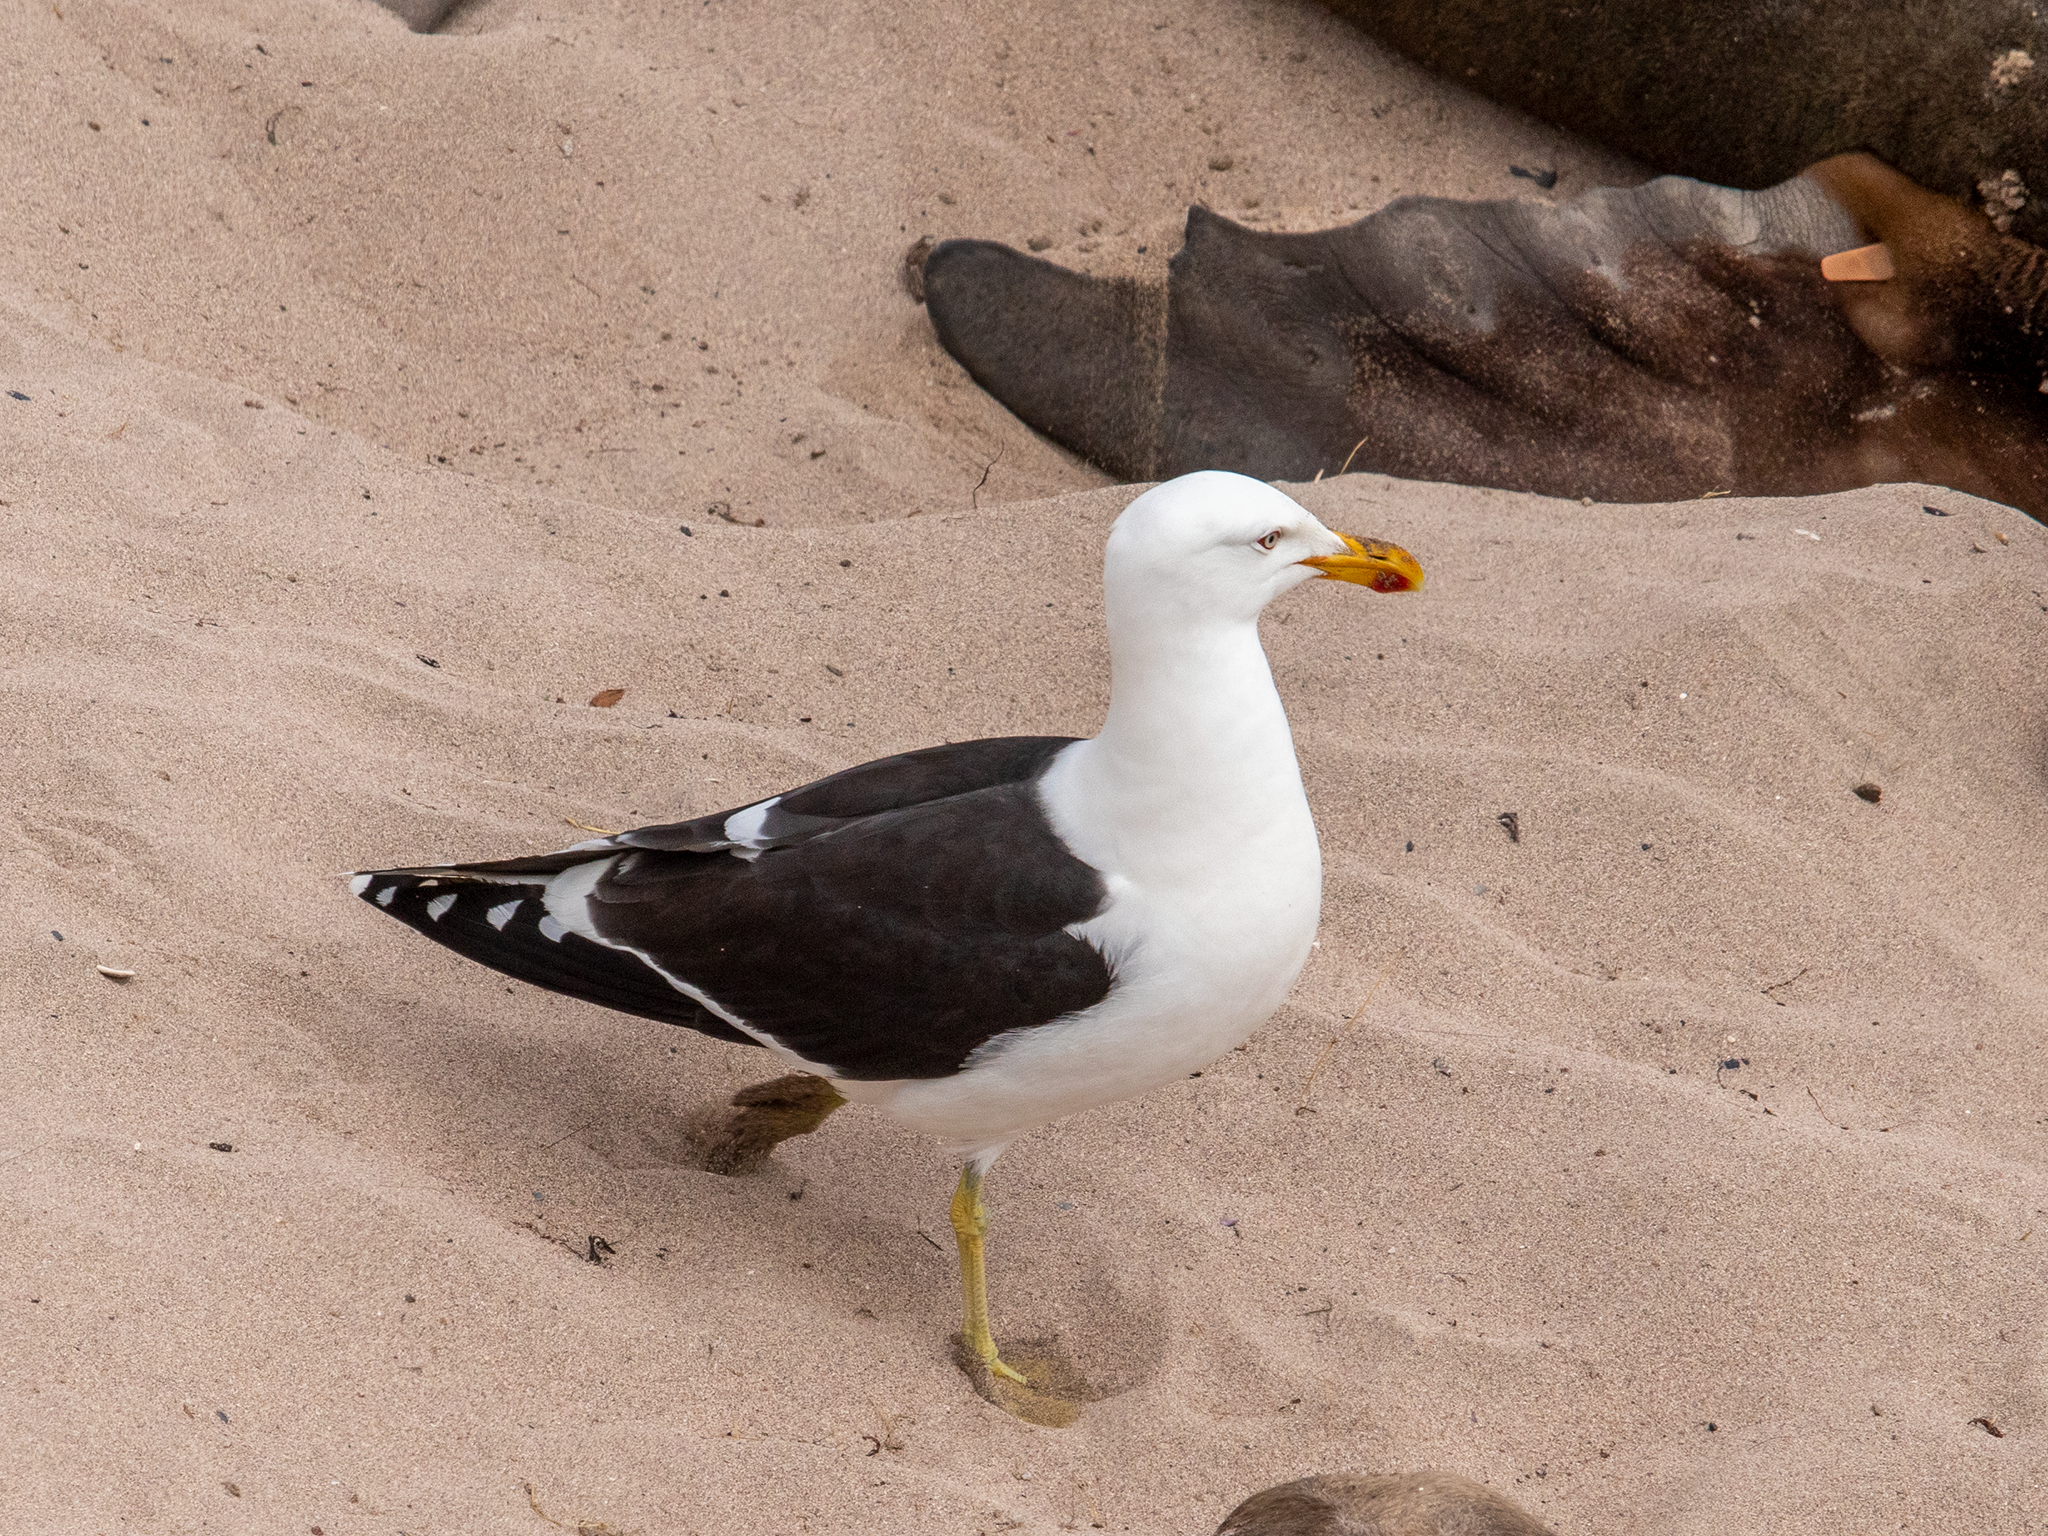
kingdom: Animalia
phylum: Chordata
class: Aves
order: Charadriiformes
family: Laridae
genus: Larus
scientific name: Larus dominicanus
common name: Kelp gull
